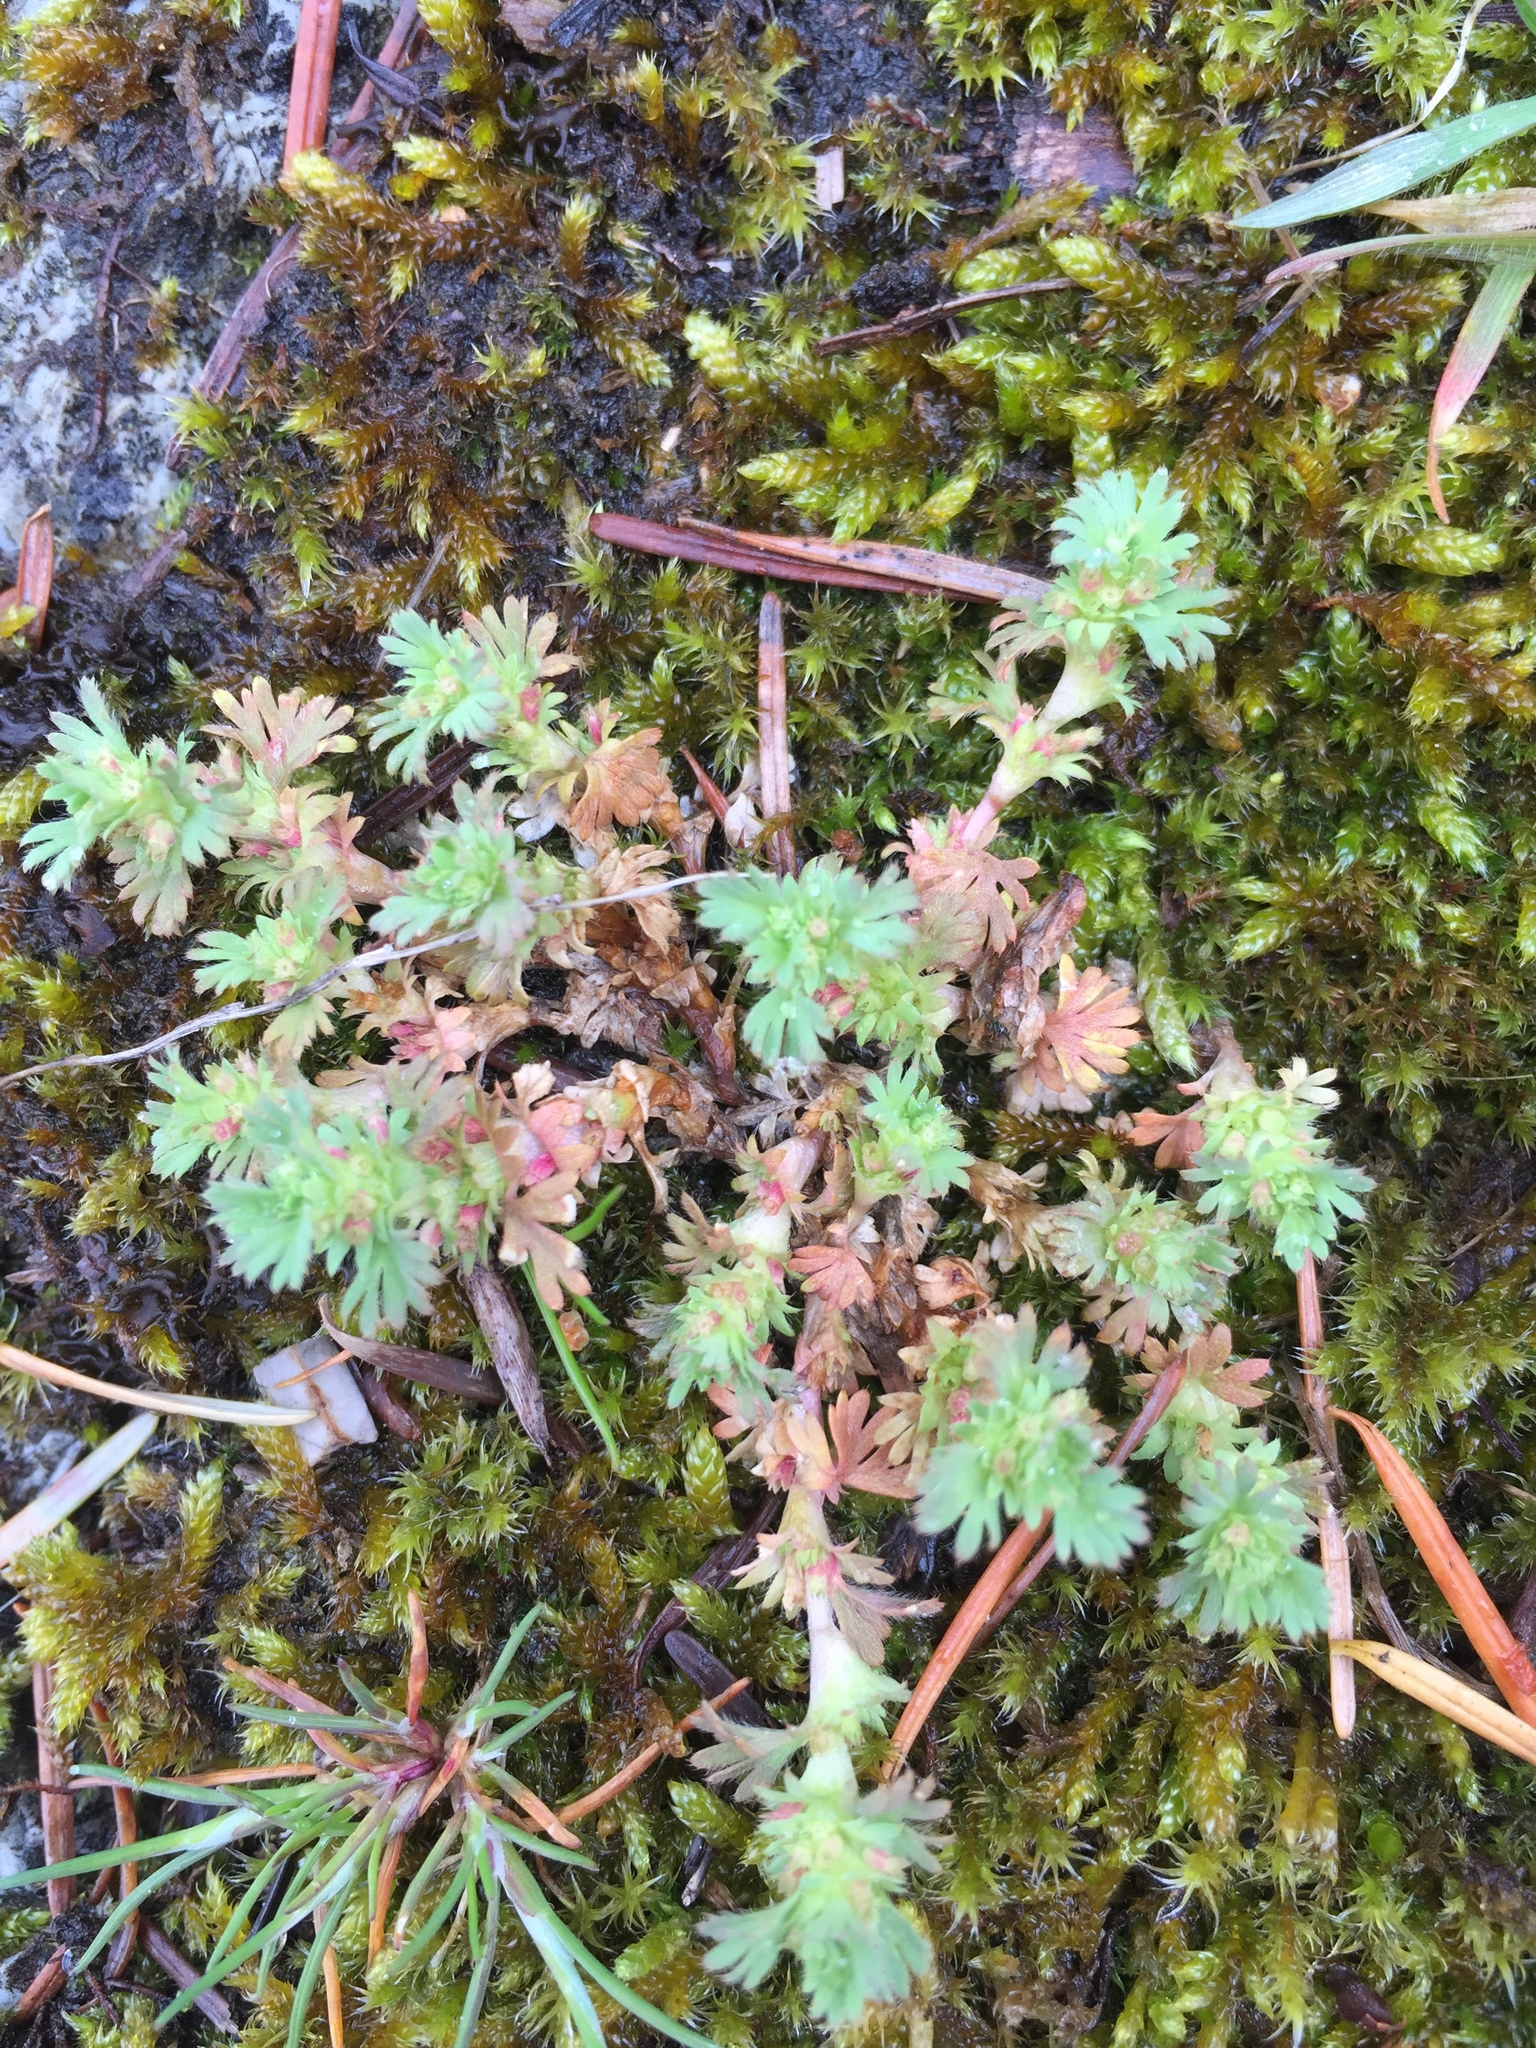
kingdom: Plantae
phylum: Tracheophyta
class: Magnoliopsida
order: Rosales
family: Rosaceae
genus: Aphanes
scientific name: Aphanes arvensis
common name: Parsley-piert
